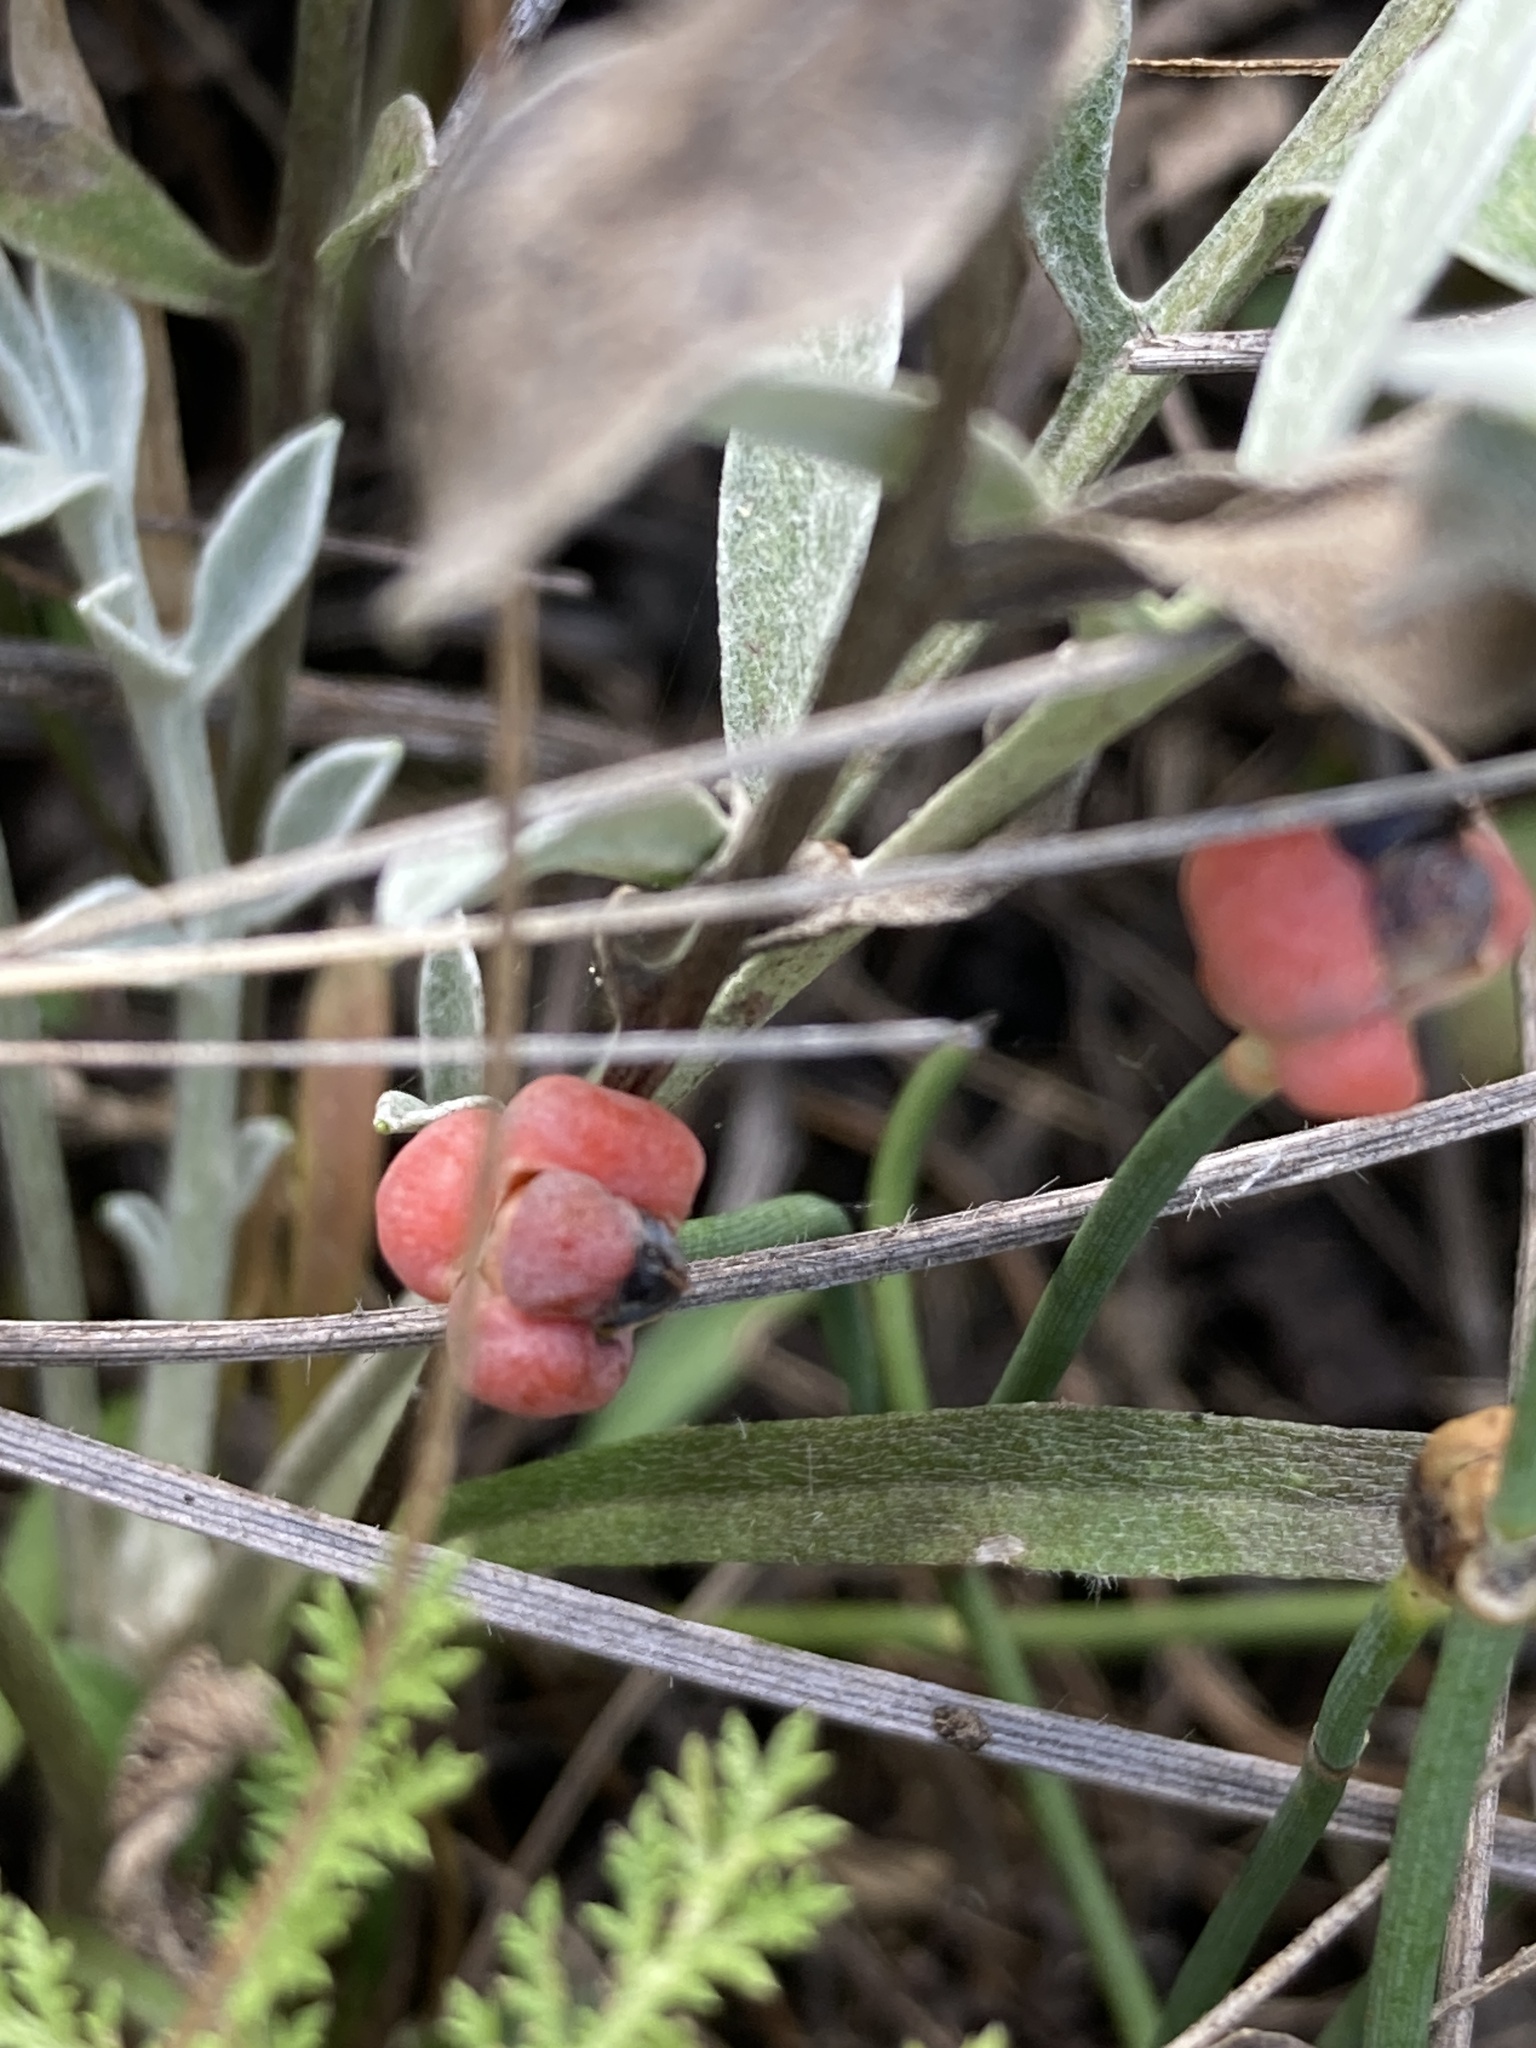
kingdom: Plantae
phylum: Tracheophyta
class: Gnetopsida
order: Ephedrales
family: Ephedraceae
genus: Ephedra
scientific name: Ephedra distachya
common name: Sea grape
